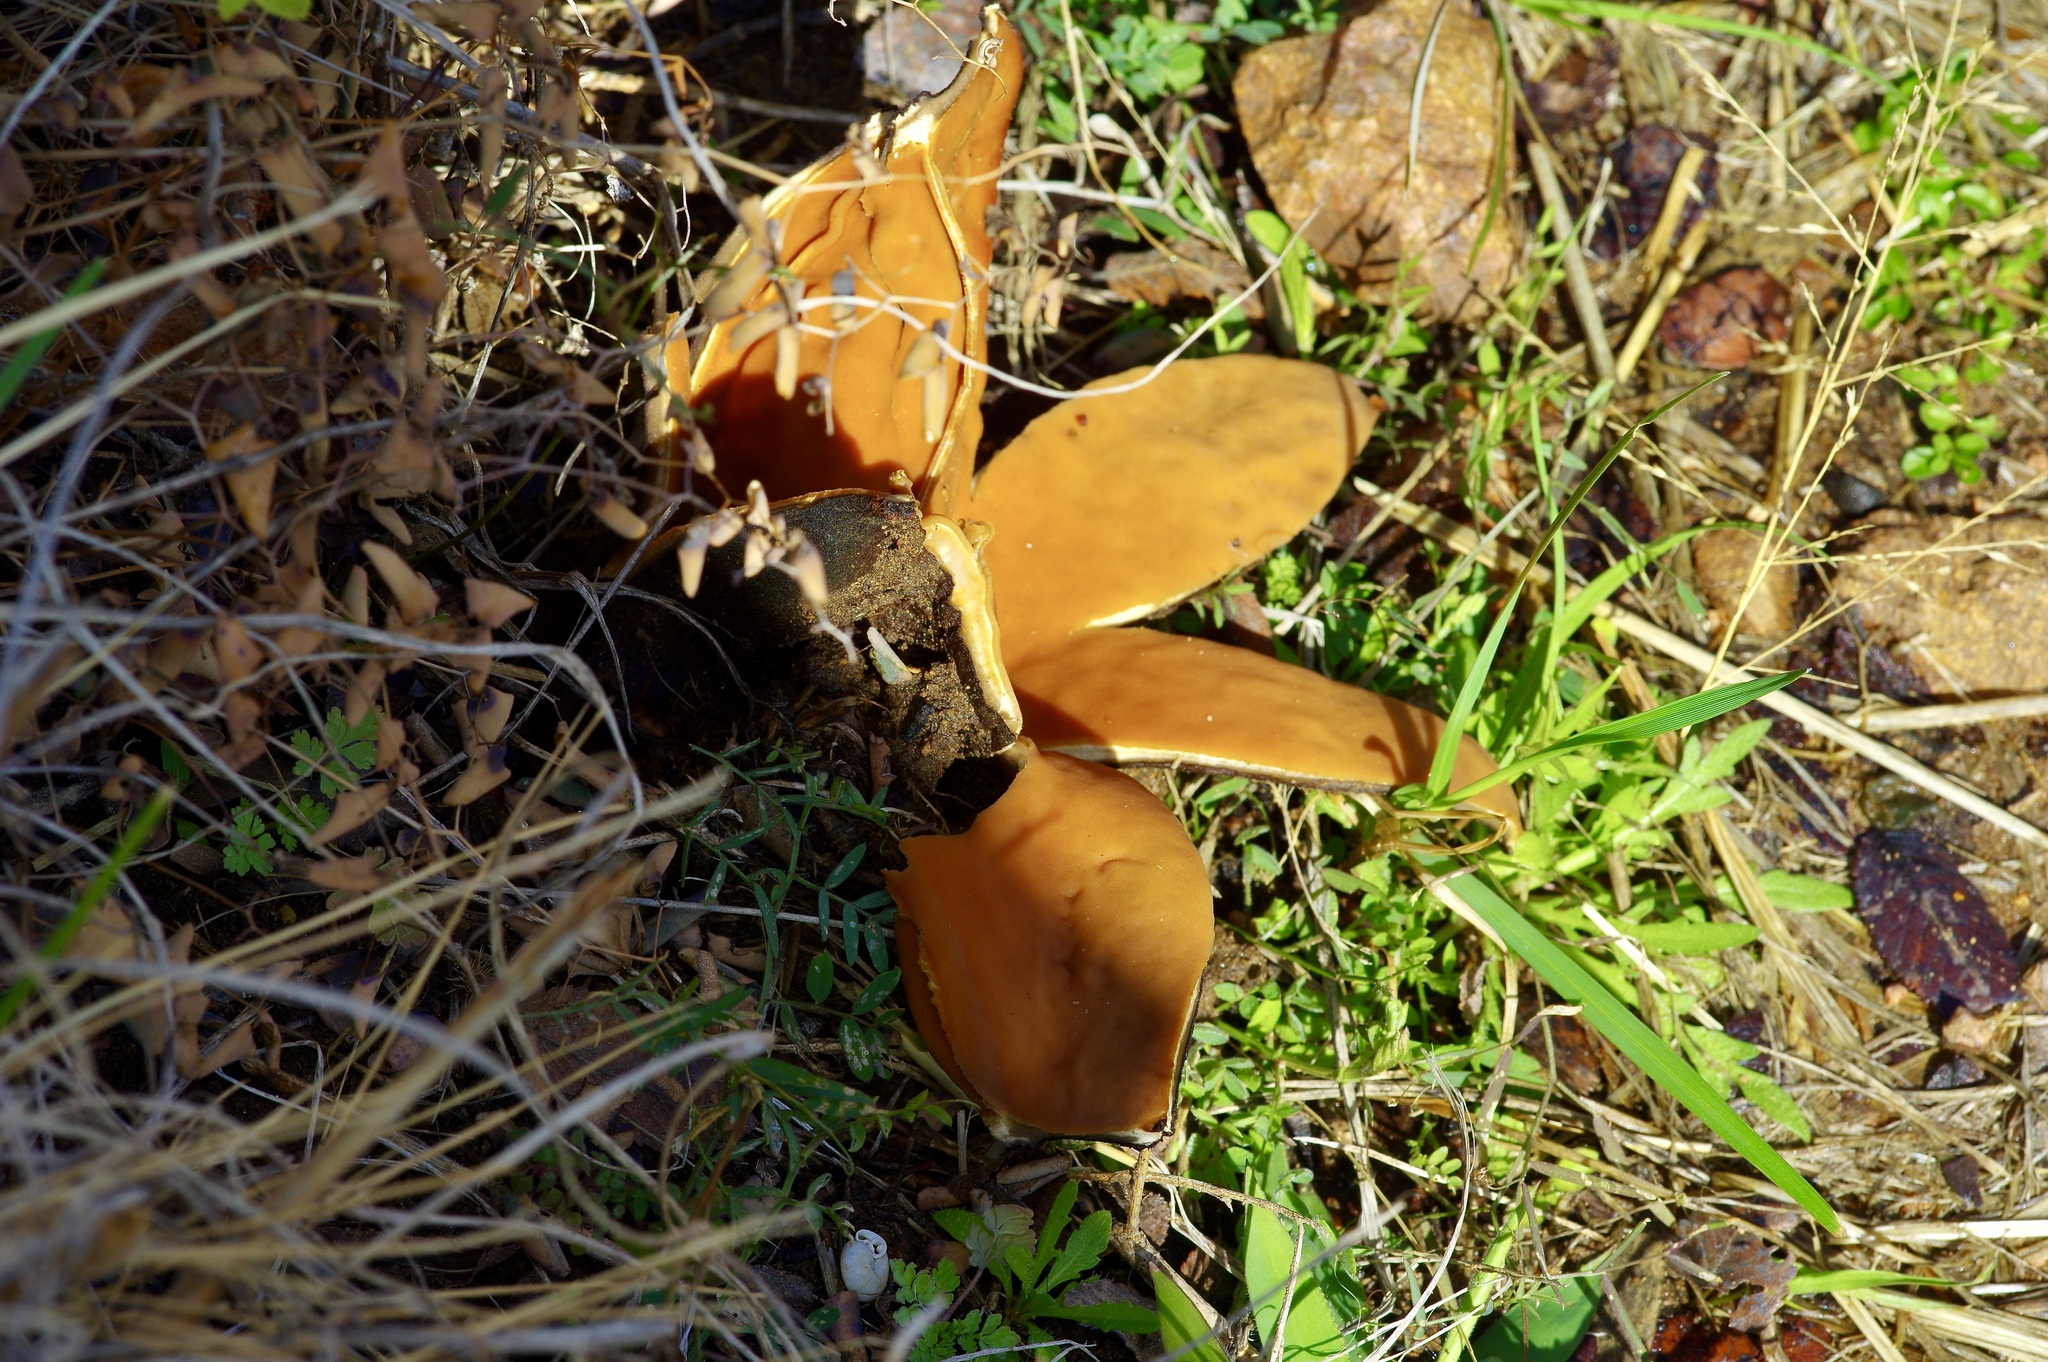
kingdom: Fungi
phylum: Ascomycota
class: Pezizomycetes
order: Pezizales
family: Chorioactidaceae
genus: Chorioactis
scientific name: Chorioactis geaster
